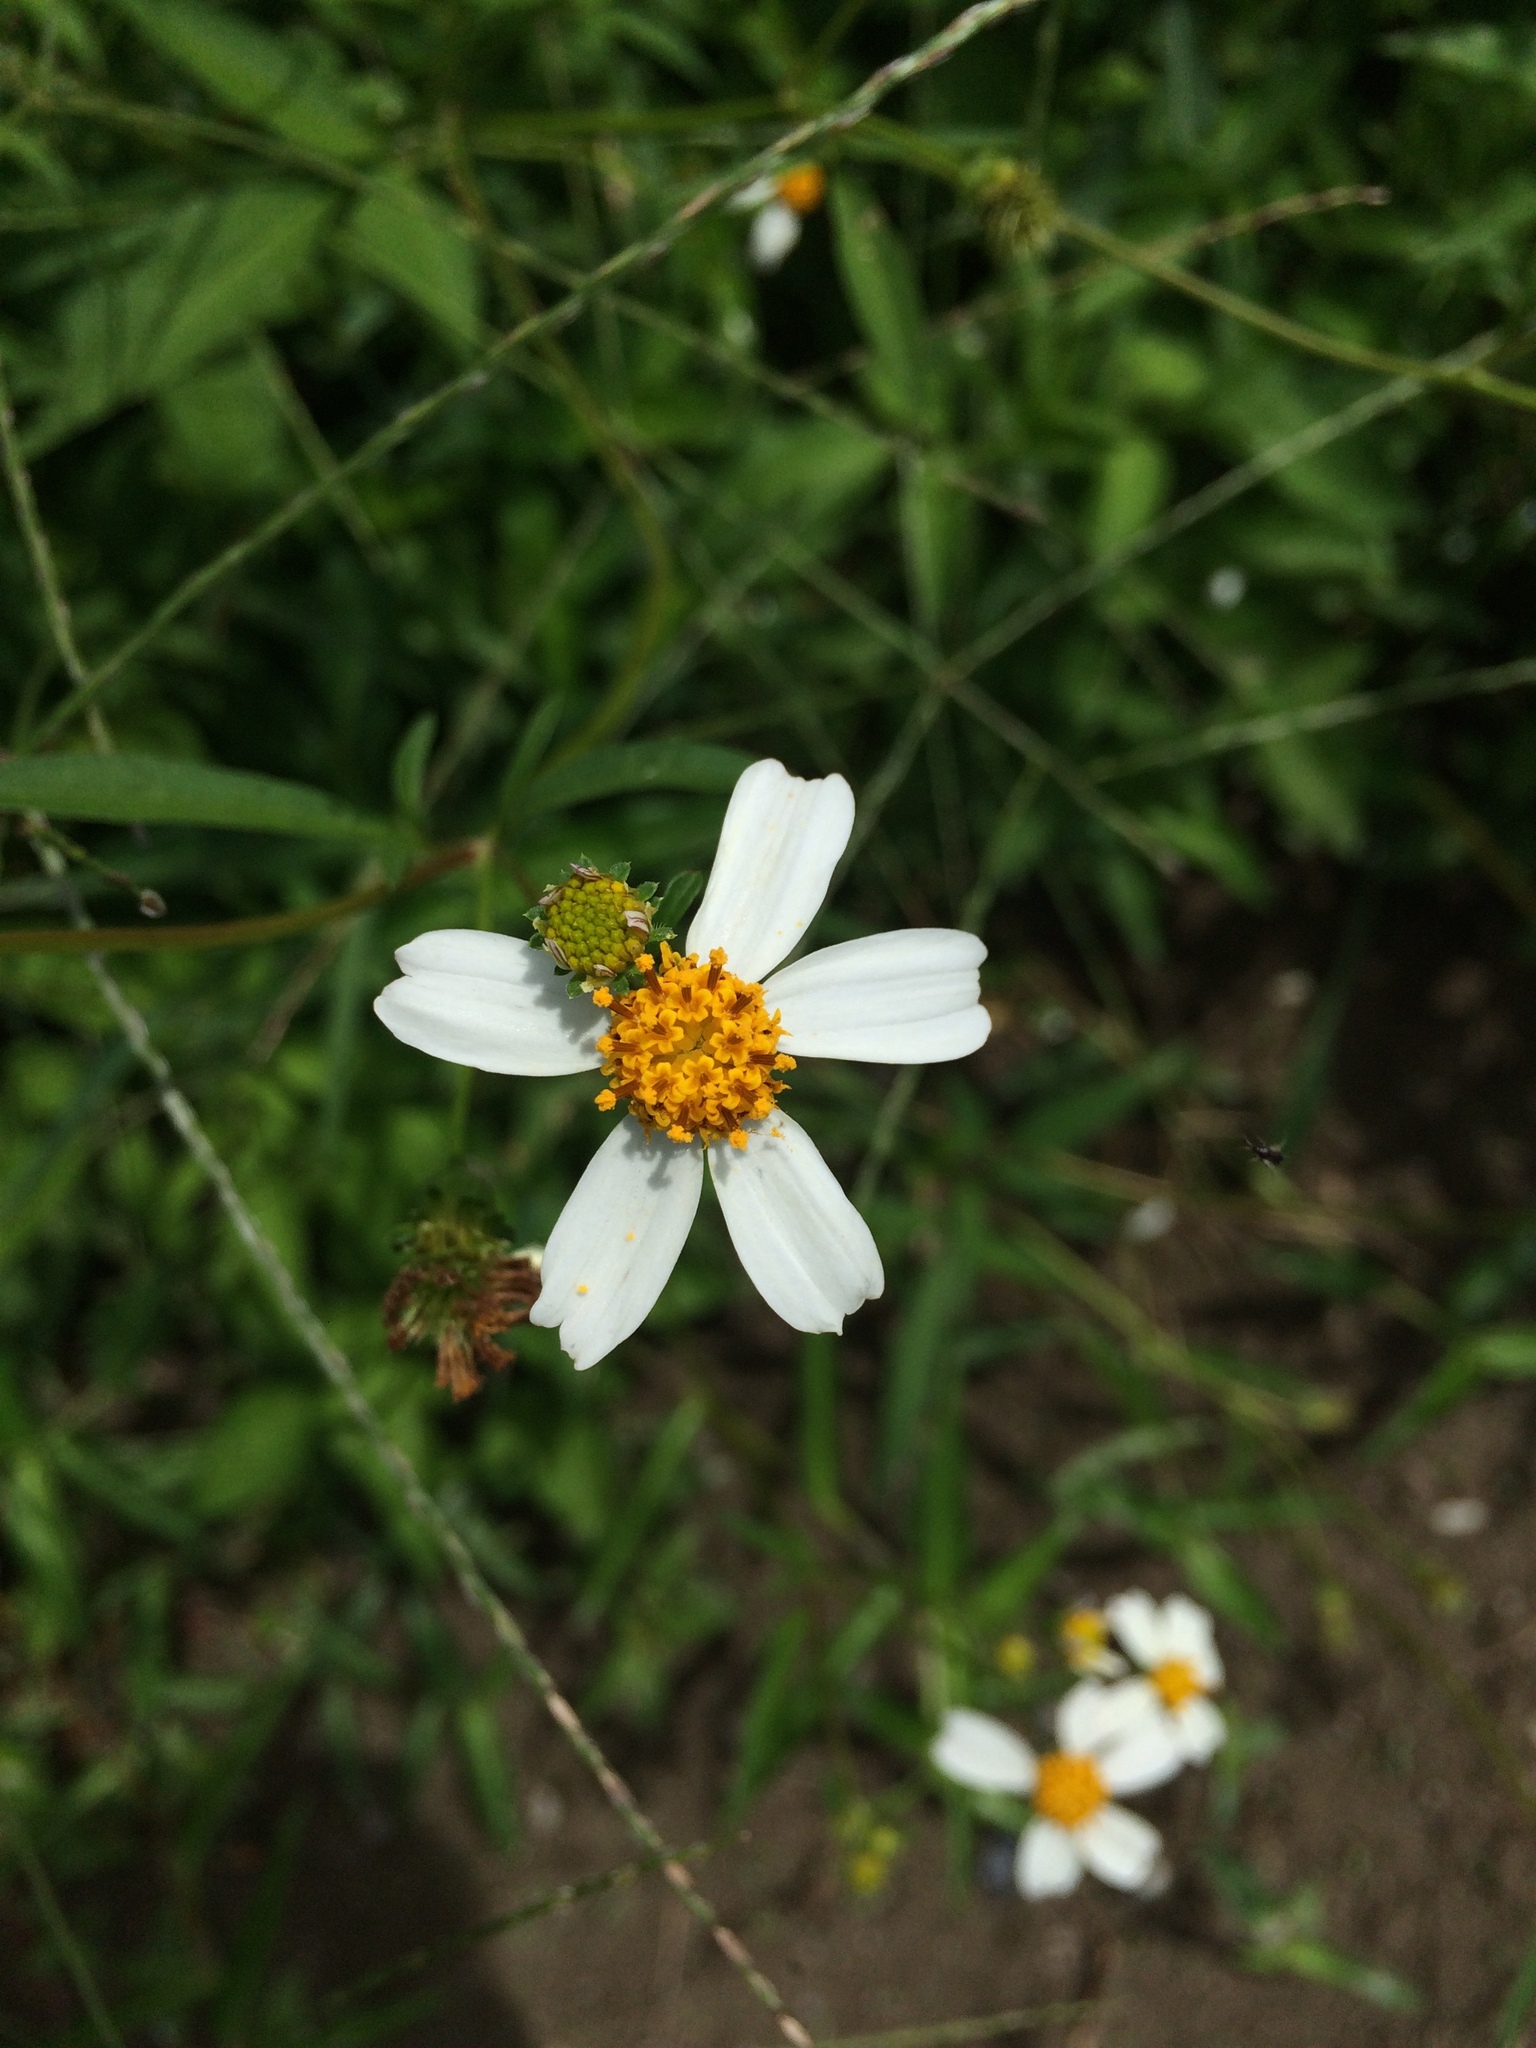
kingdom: Plantae
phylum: Tracheophyta
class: Magnoliopsida
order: Asterales
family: Asteraceae
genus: Bidens
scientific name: Bidens alba
